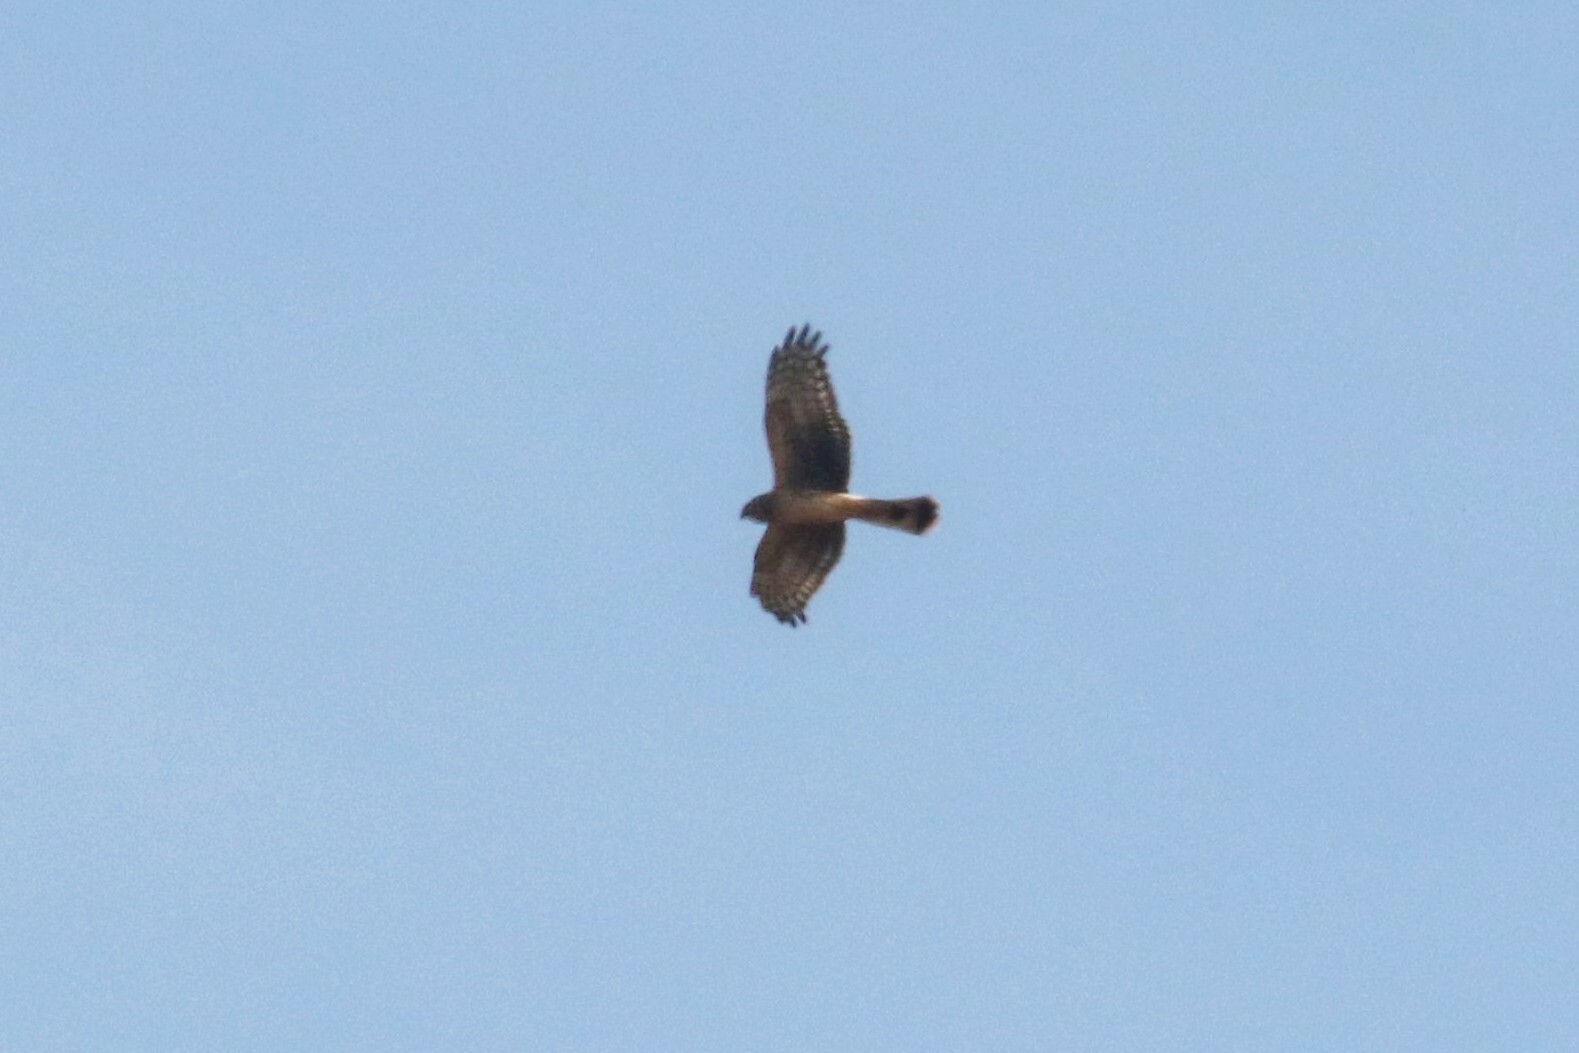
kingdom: Animalia
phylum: Chordata
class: Aves
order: Accipitriformes
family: Accipitridae
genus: Circus
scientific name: Circus cyaneus
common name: Hen harrier
